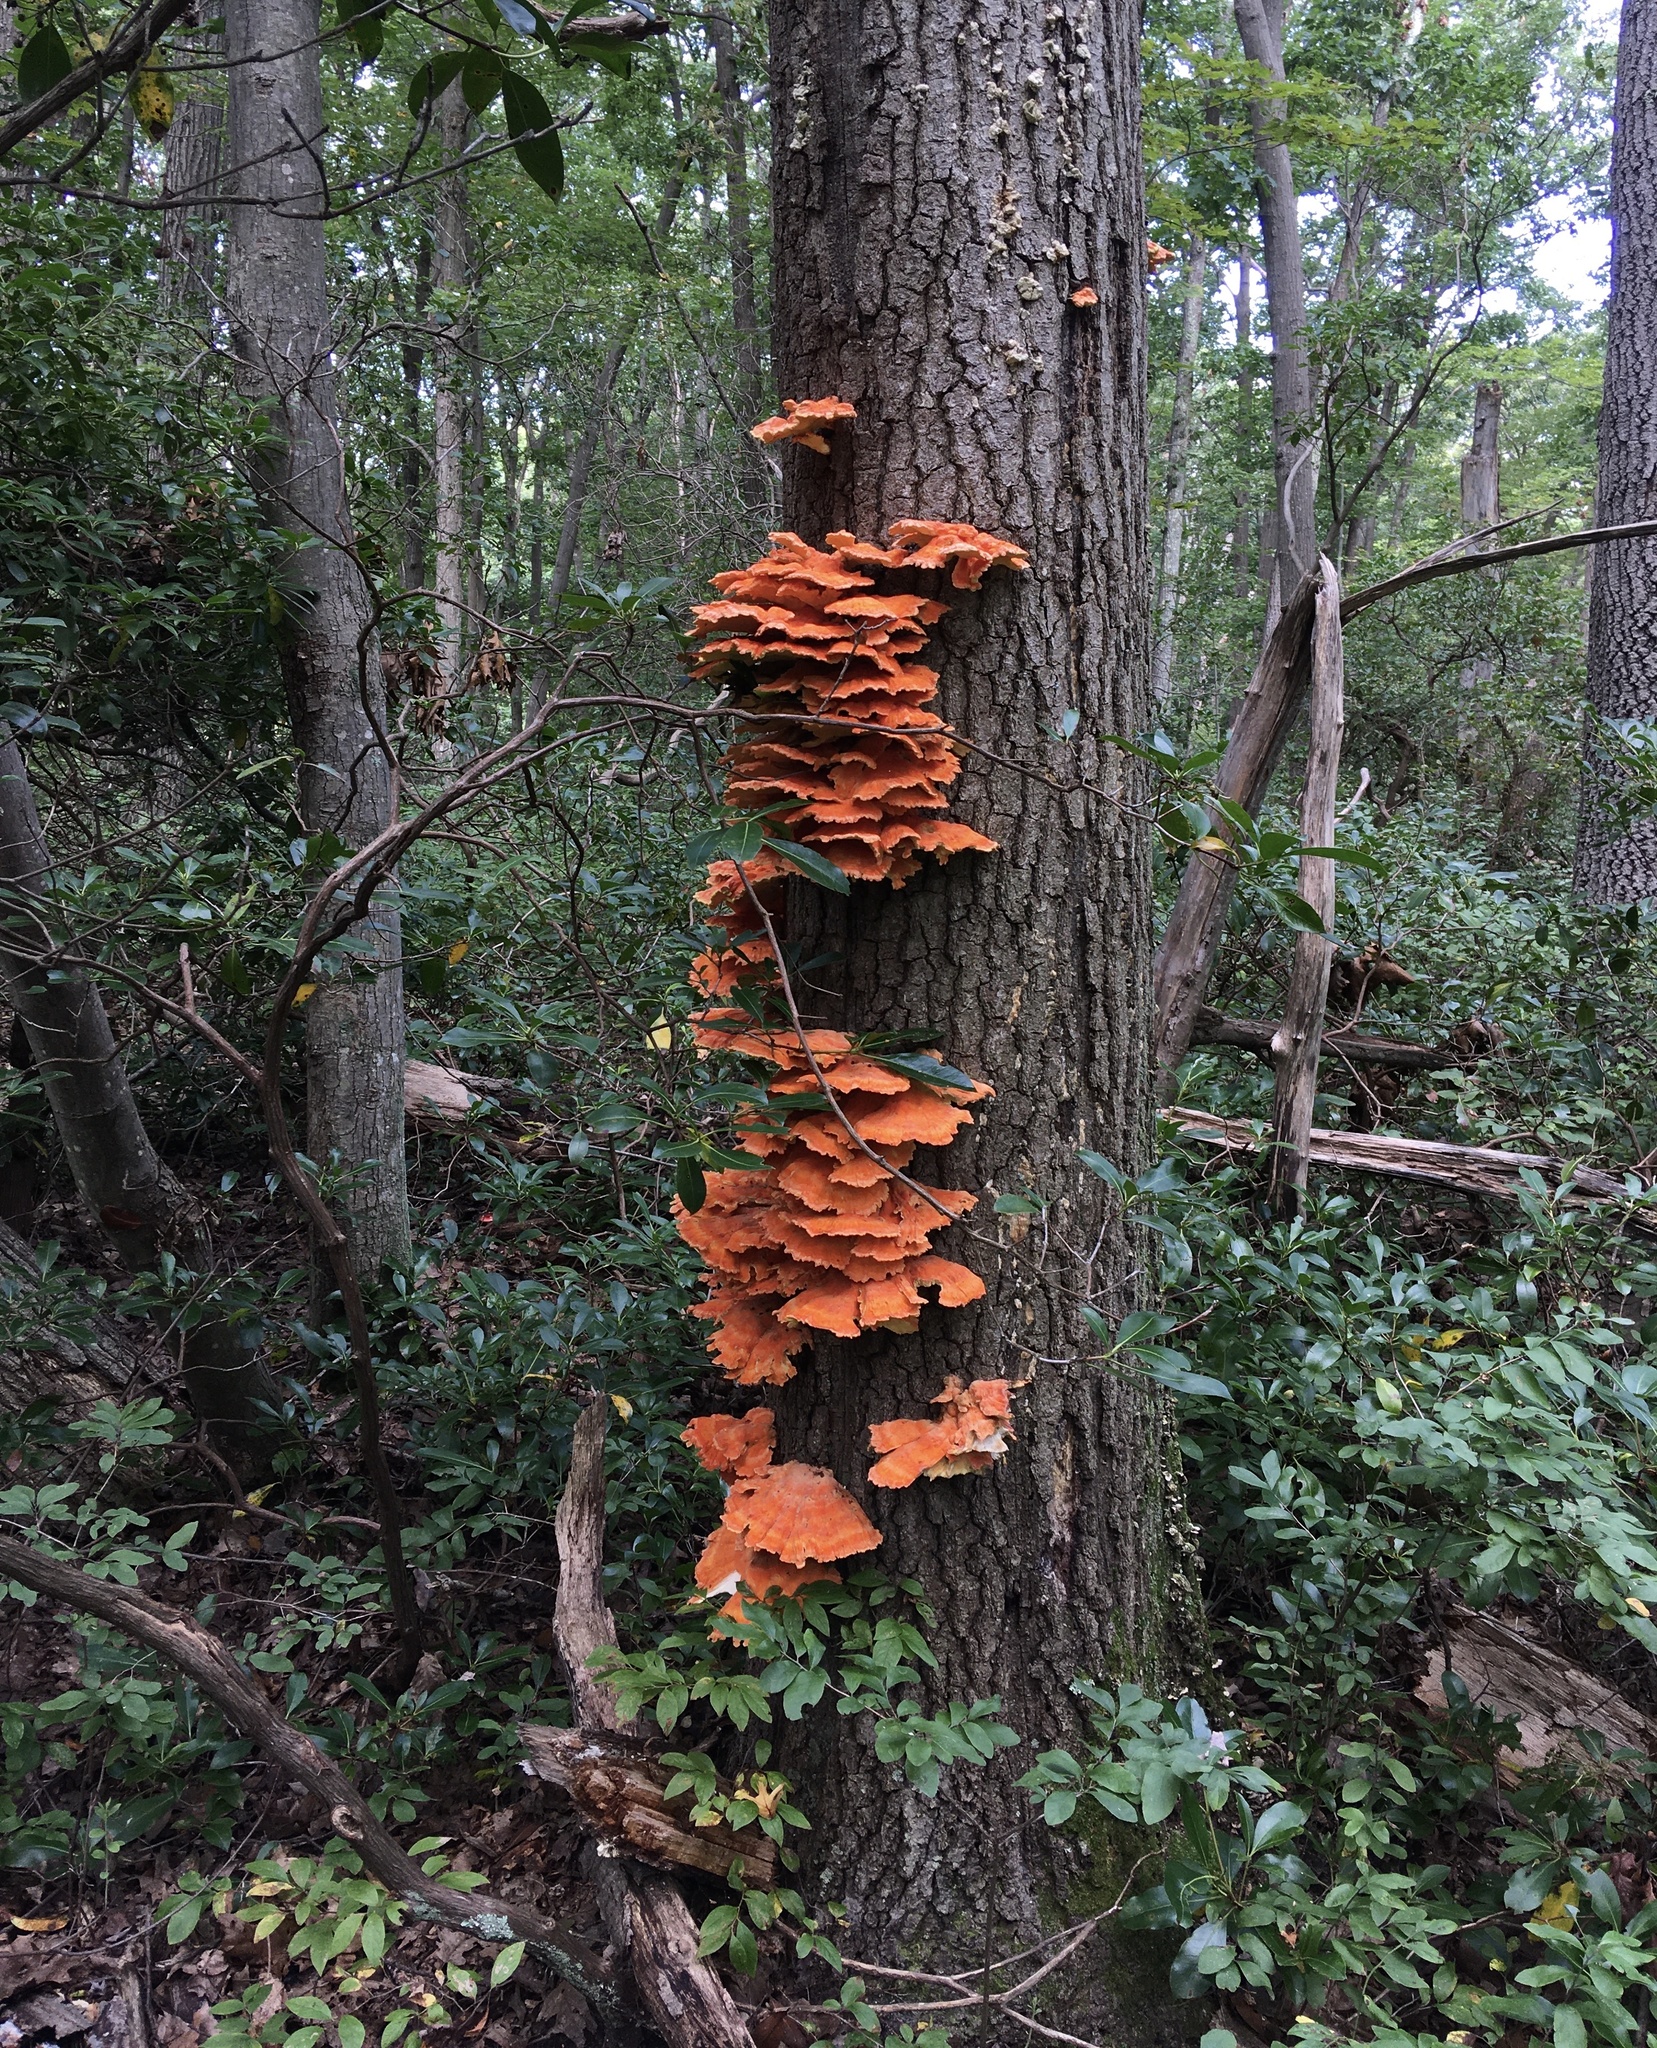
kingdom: Fungi
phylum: Basidiomycota
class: Agaricomycetes
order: Polyporales
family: Laetiporaceae
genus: Laetiporus
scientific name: Laetiporus sulphureus
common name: Chicken of the woods
